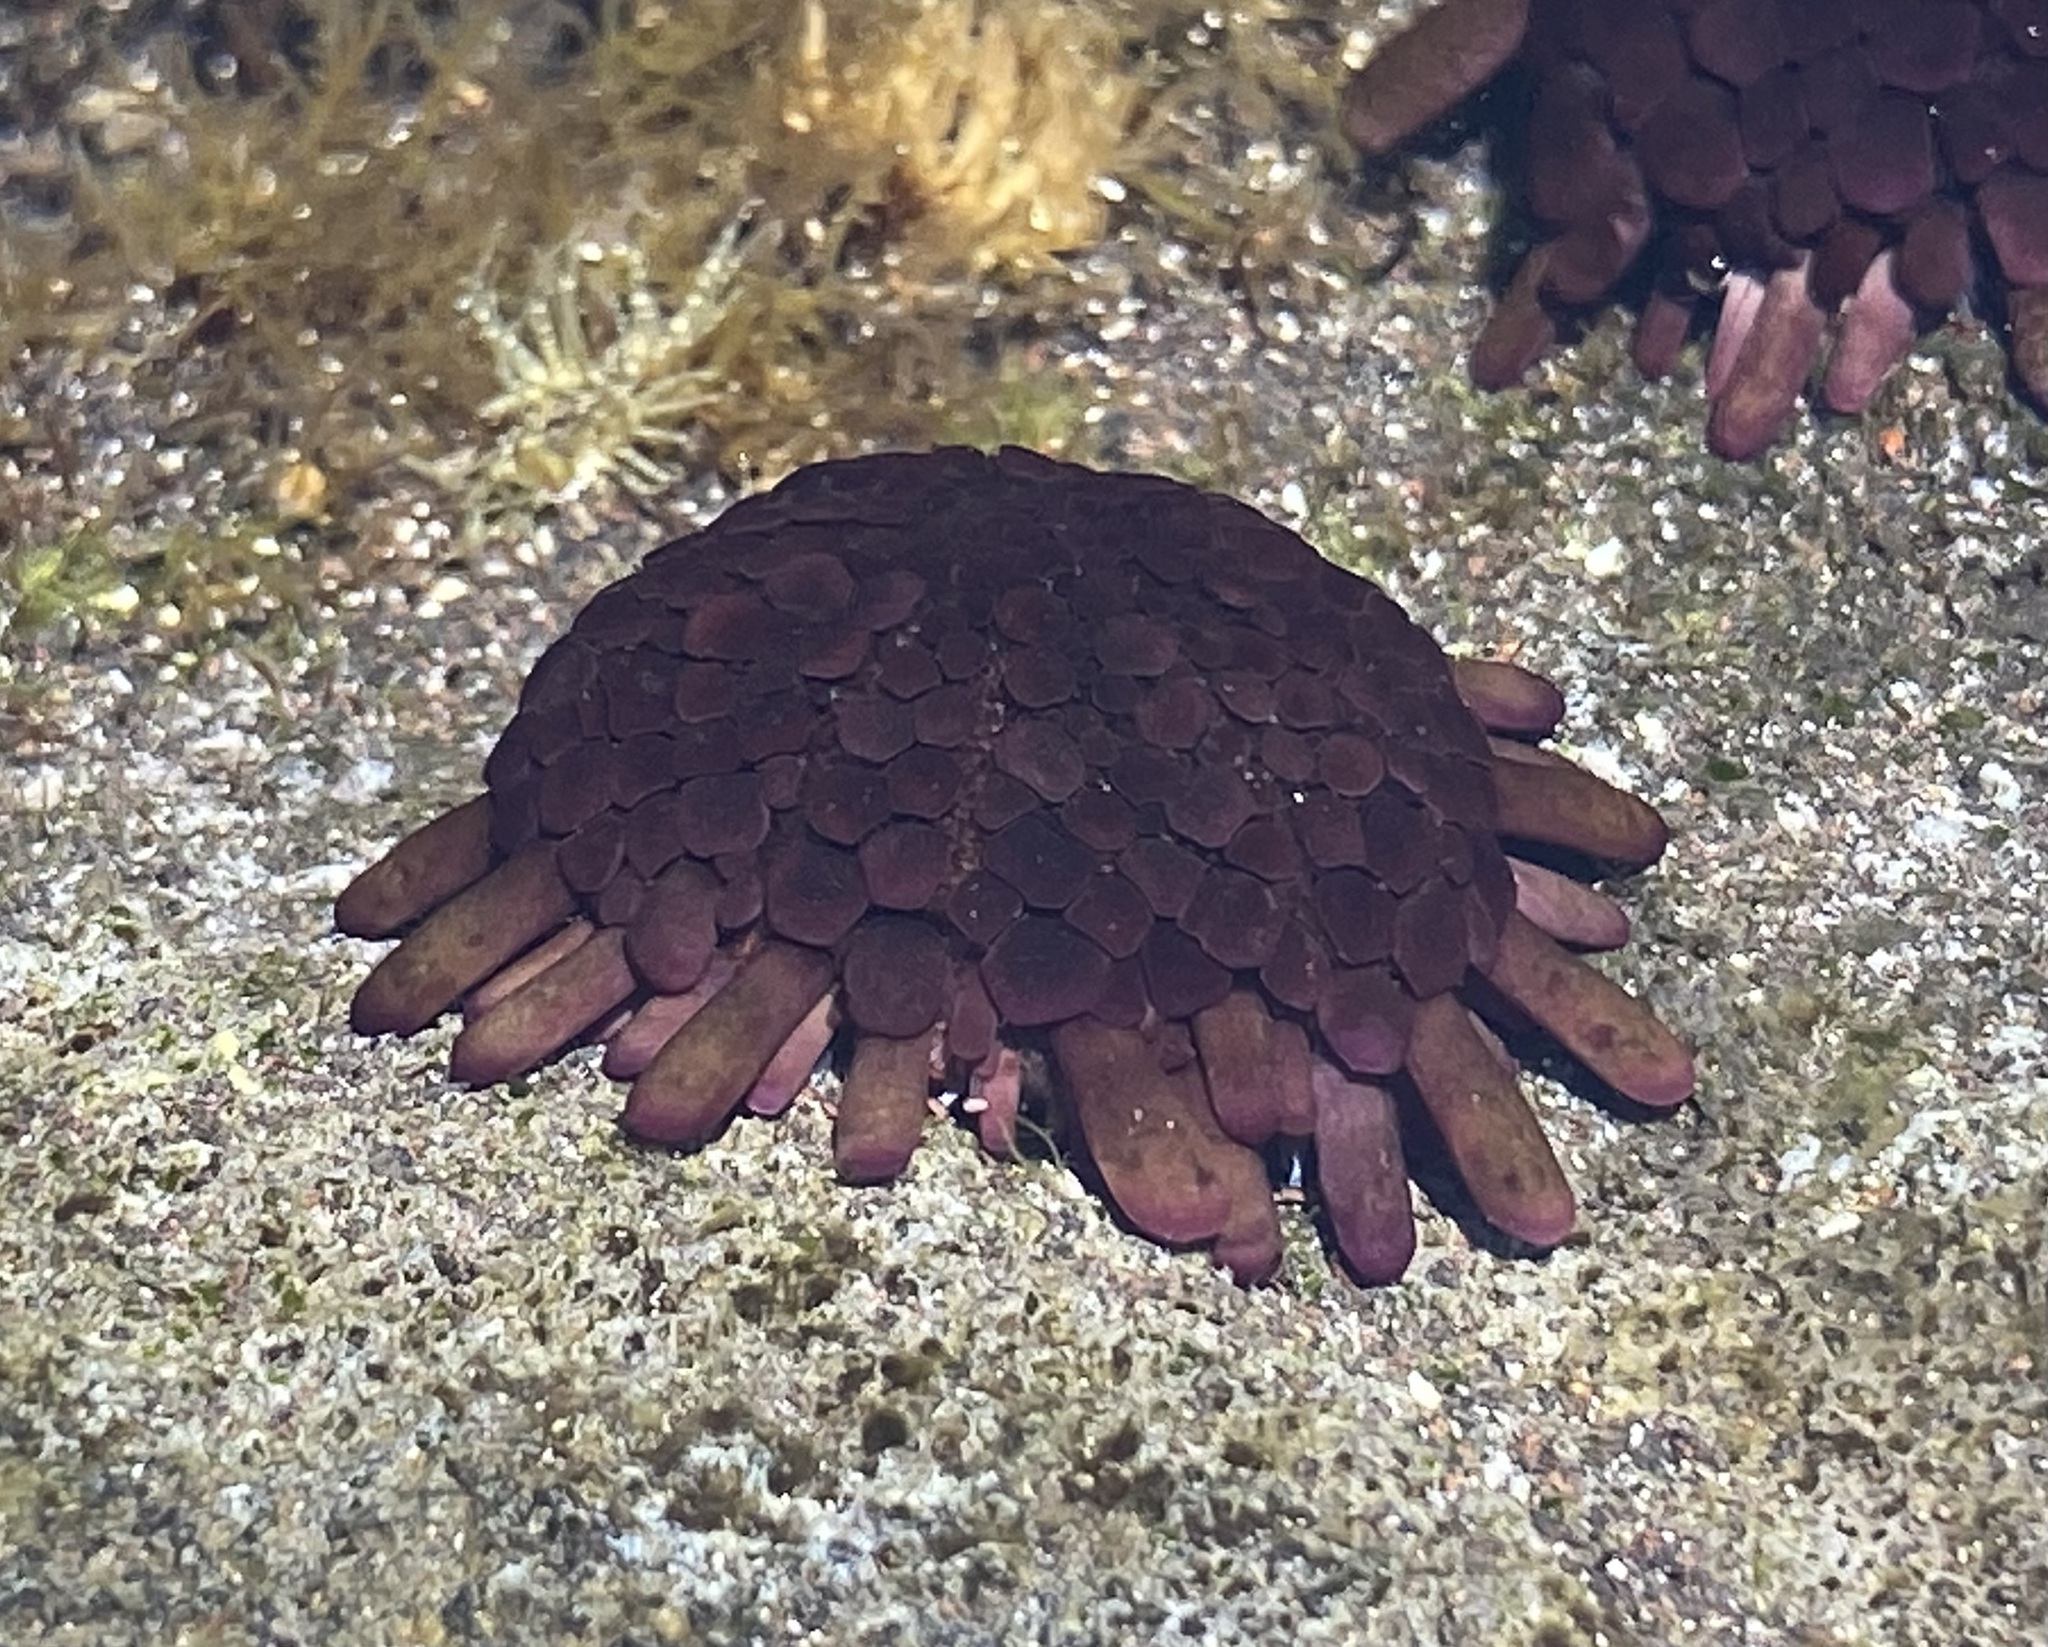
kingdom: Animalia
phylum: Echinodermata
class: Echinoidea
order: Camarodonta
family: Echinometridae
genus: Colobocentrotus
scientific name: Colobocentrotus atratus
